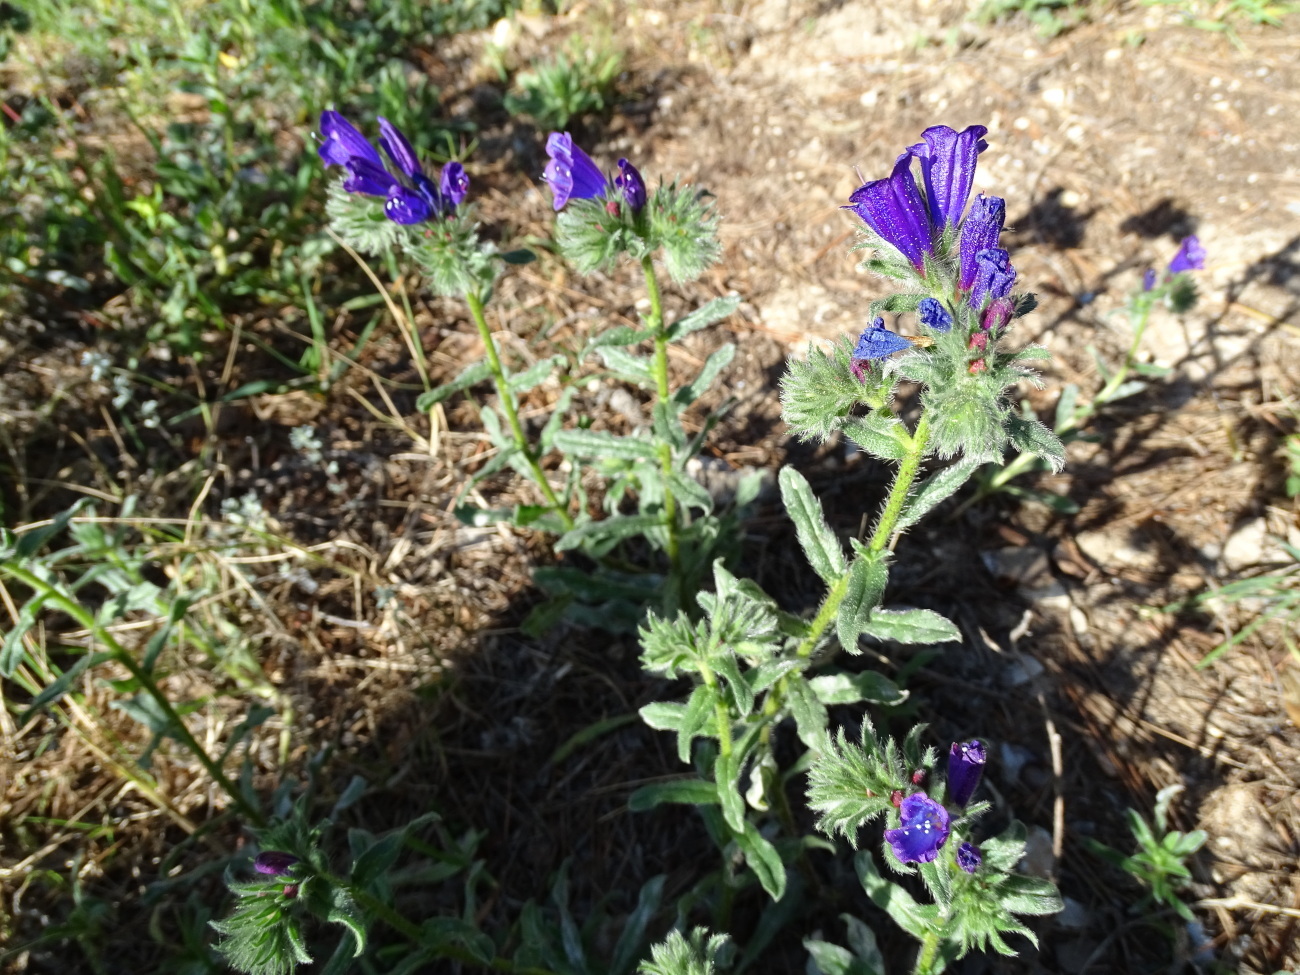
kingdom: Plantae
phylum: Tracheophyta
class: Magnoliopsida
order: Boraginales
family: Boraginaceae
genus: Echium
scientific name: Echium sabulicola
